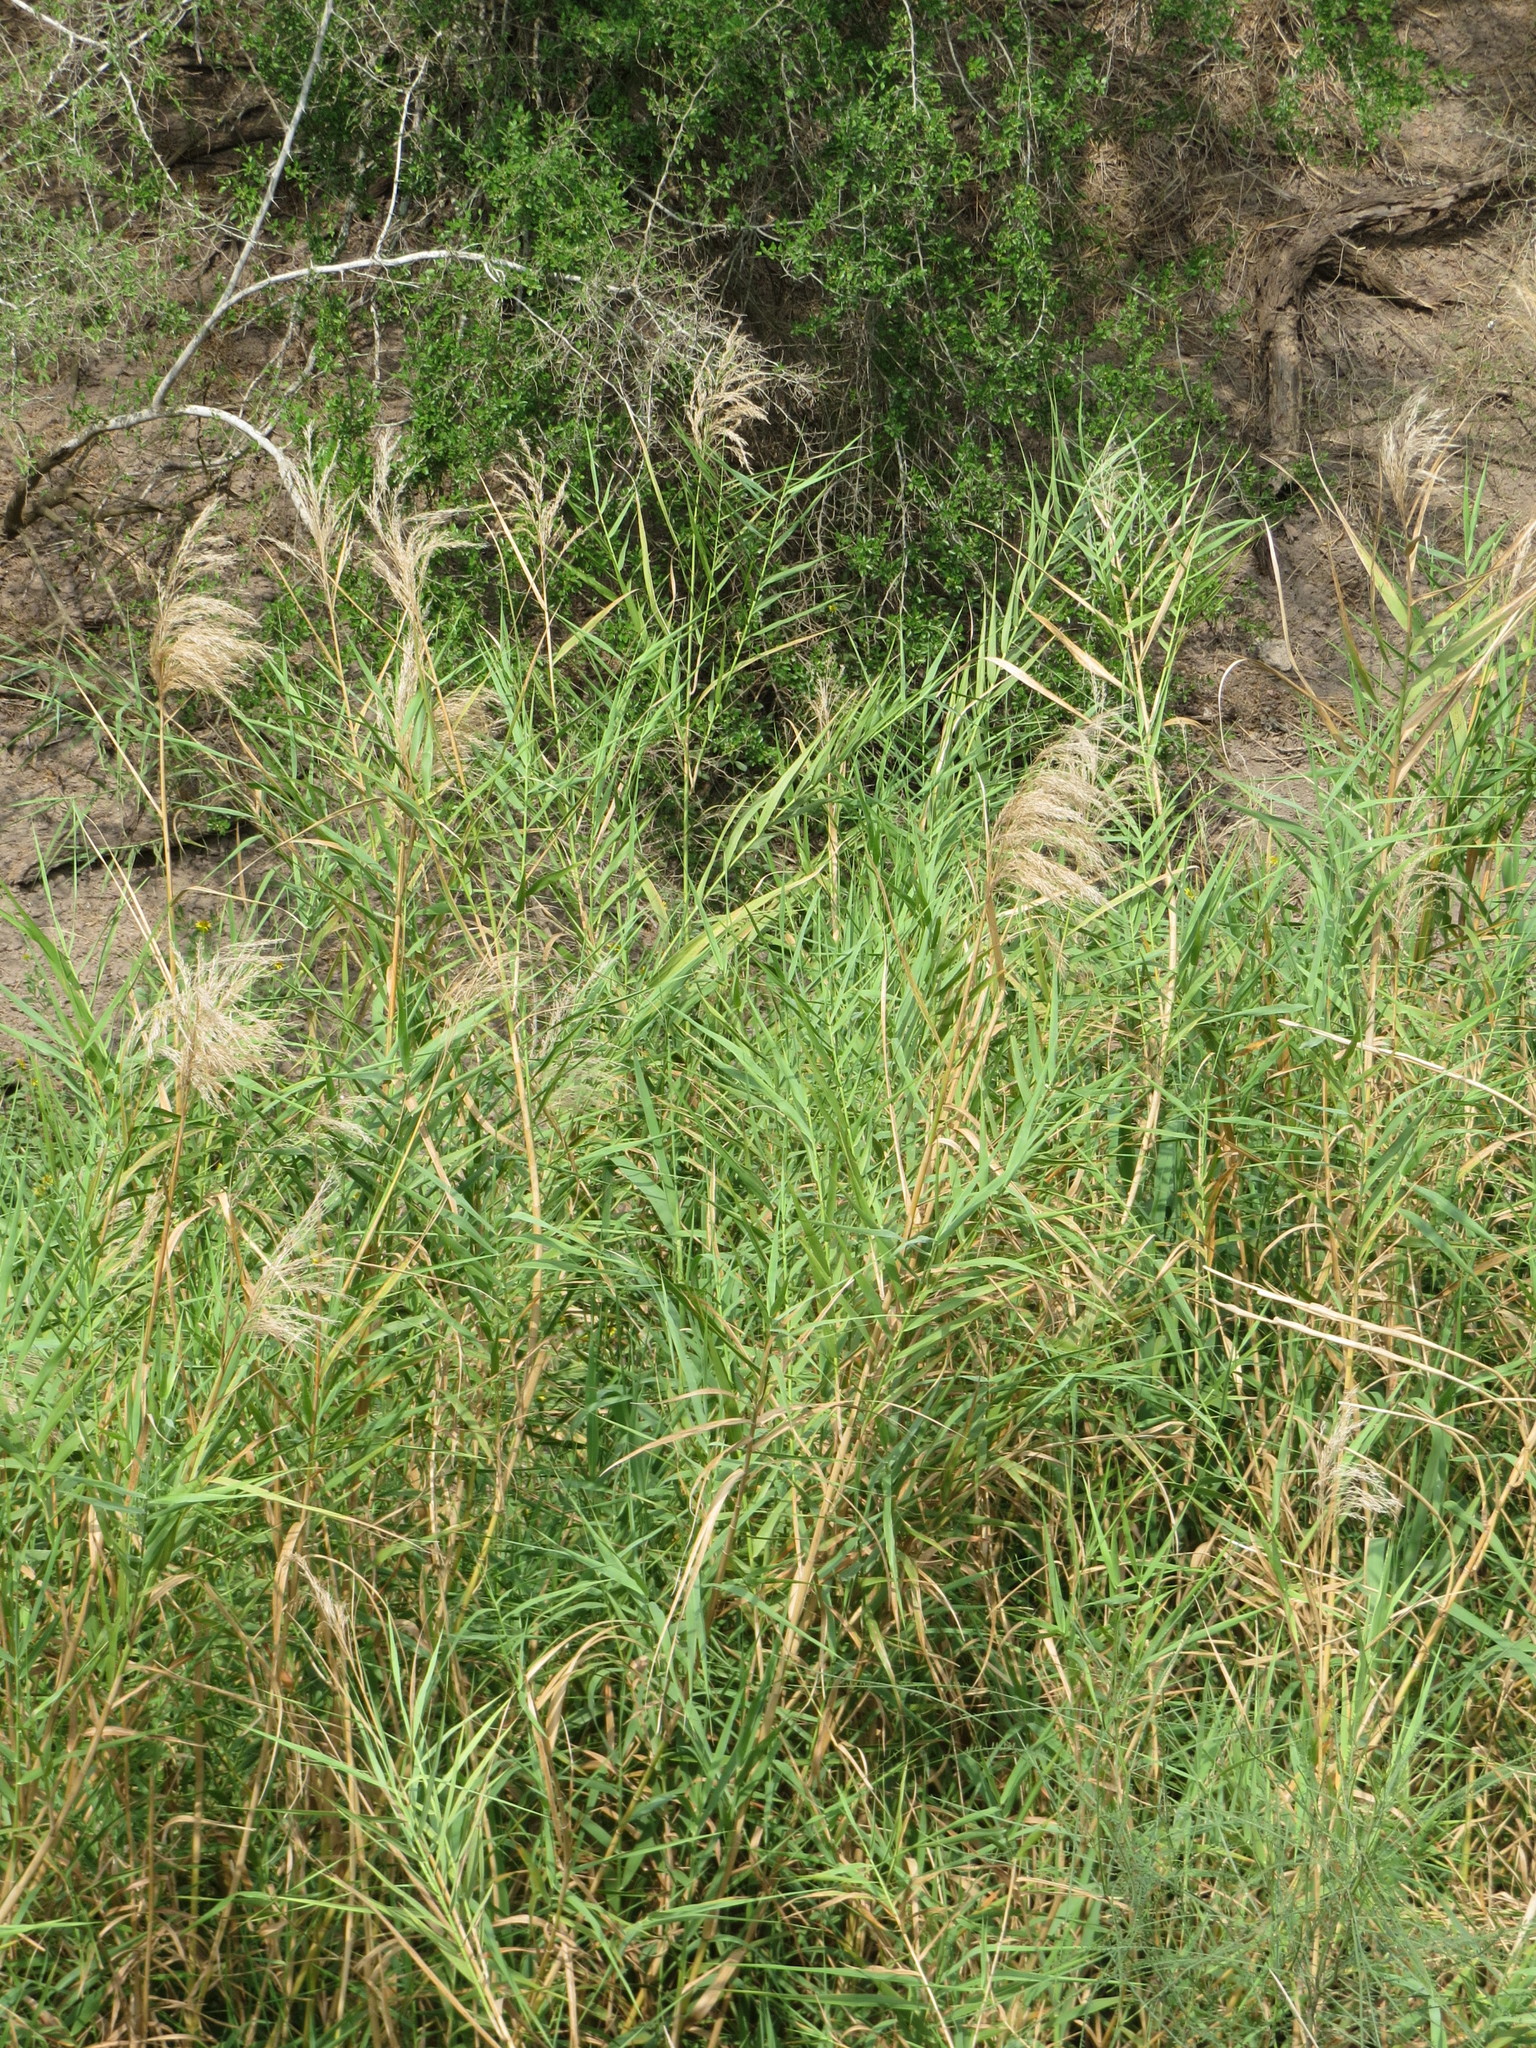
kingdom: Plantae
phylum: Tracheophyta
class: Liliopsida
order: Poales
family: Poaceae
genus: Phragmites
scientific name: Phragmites australis
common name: Common reed
